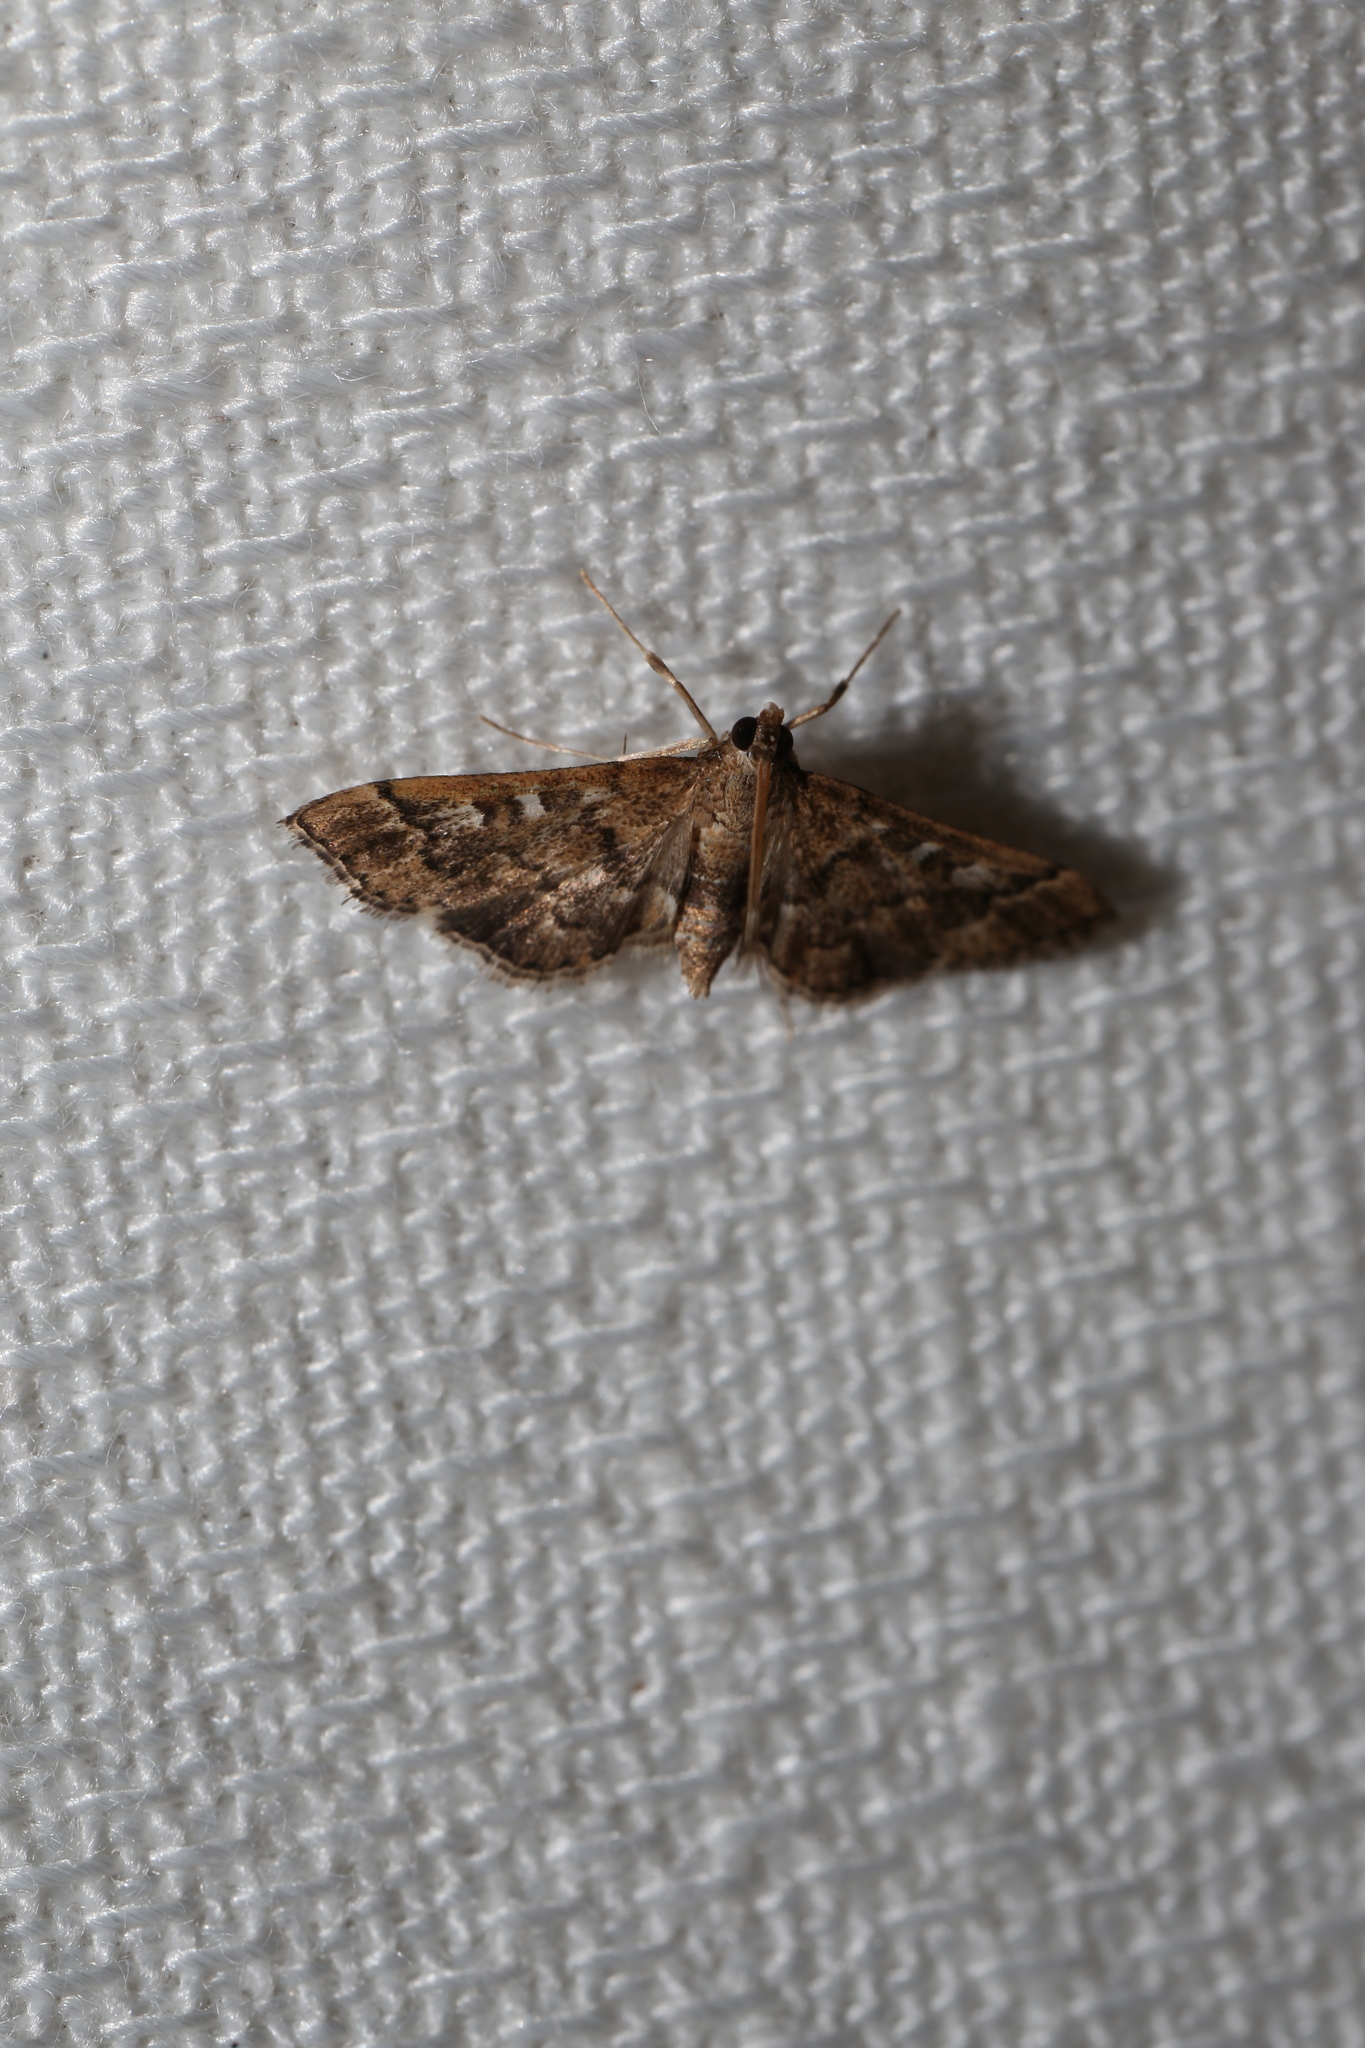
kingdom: Animalia
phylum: Arthropoda
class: Insecta
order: Lepidoptera
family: Crambidae
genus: Nacoleia
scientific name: Nacoleia rhoeoalis
